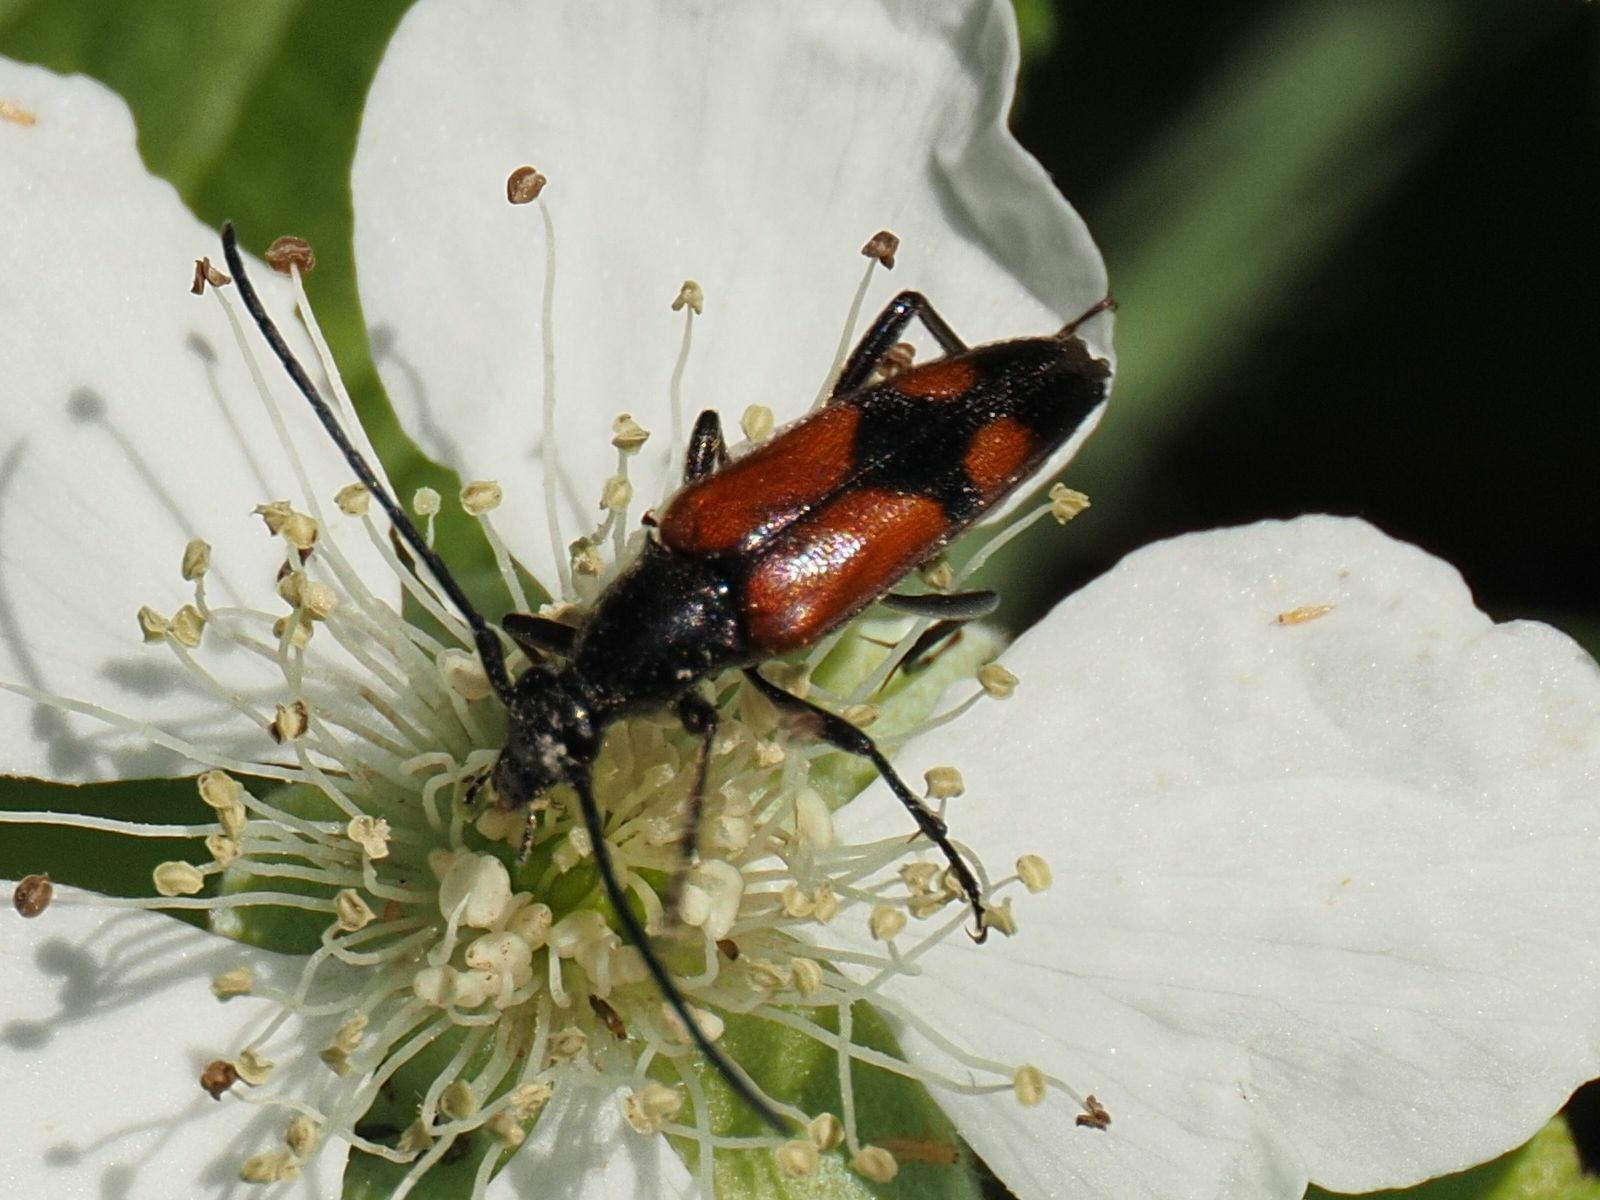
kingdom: Animalia
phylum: Arthropoda
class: Insecta
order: Coleoptera
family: Cerambycidae
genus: Stenurella
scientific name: Stenurella bifasciata
